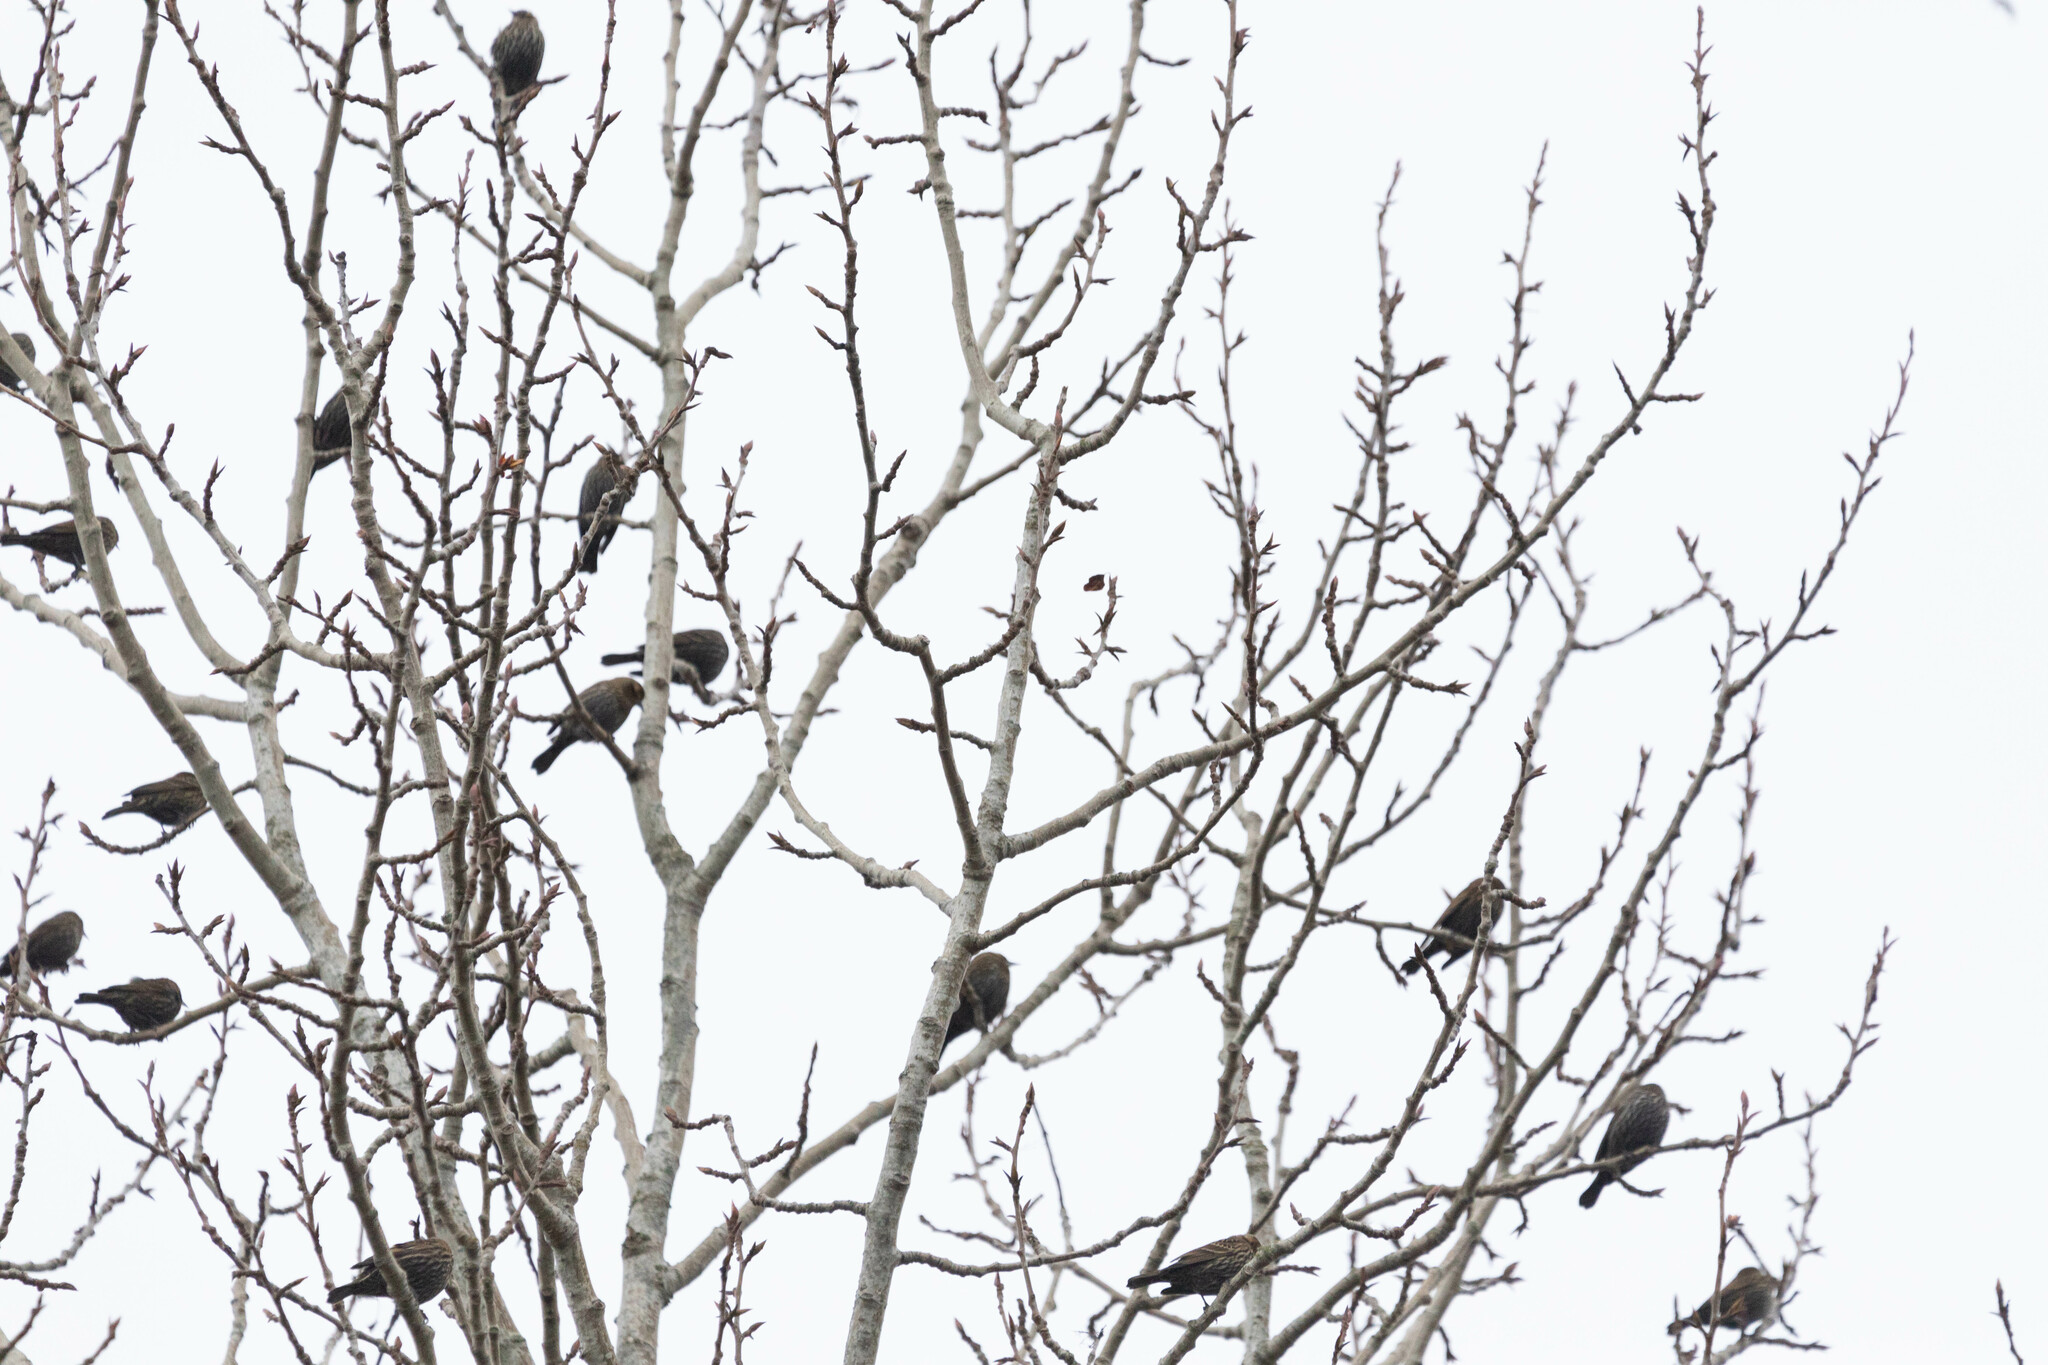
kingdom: Animalia
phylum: Chordata
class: Aves
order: Passeriformes
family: Icteridae
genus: Agelaius
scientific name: Agelaius phoeniceus
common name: Red-winged blackbird
